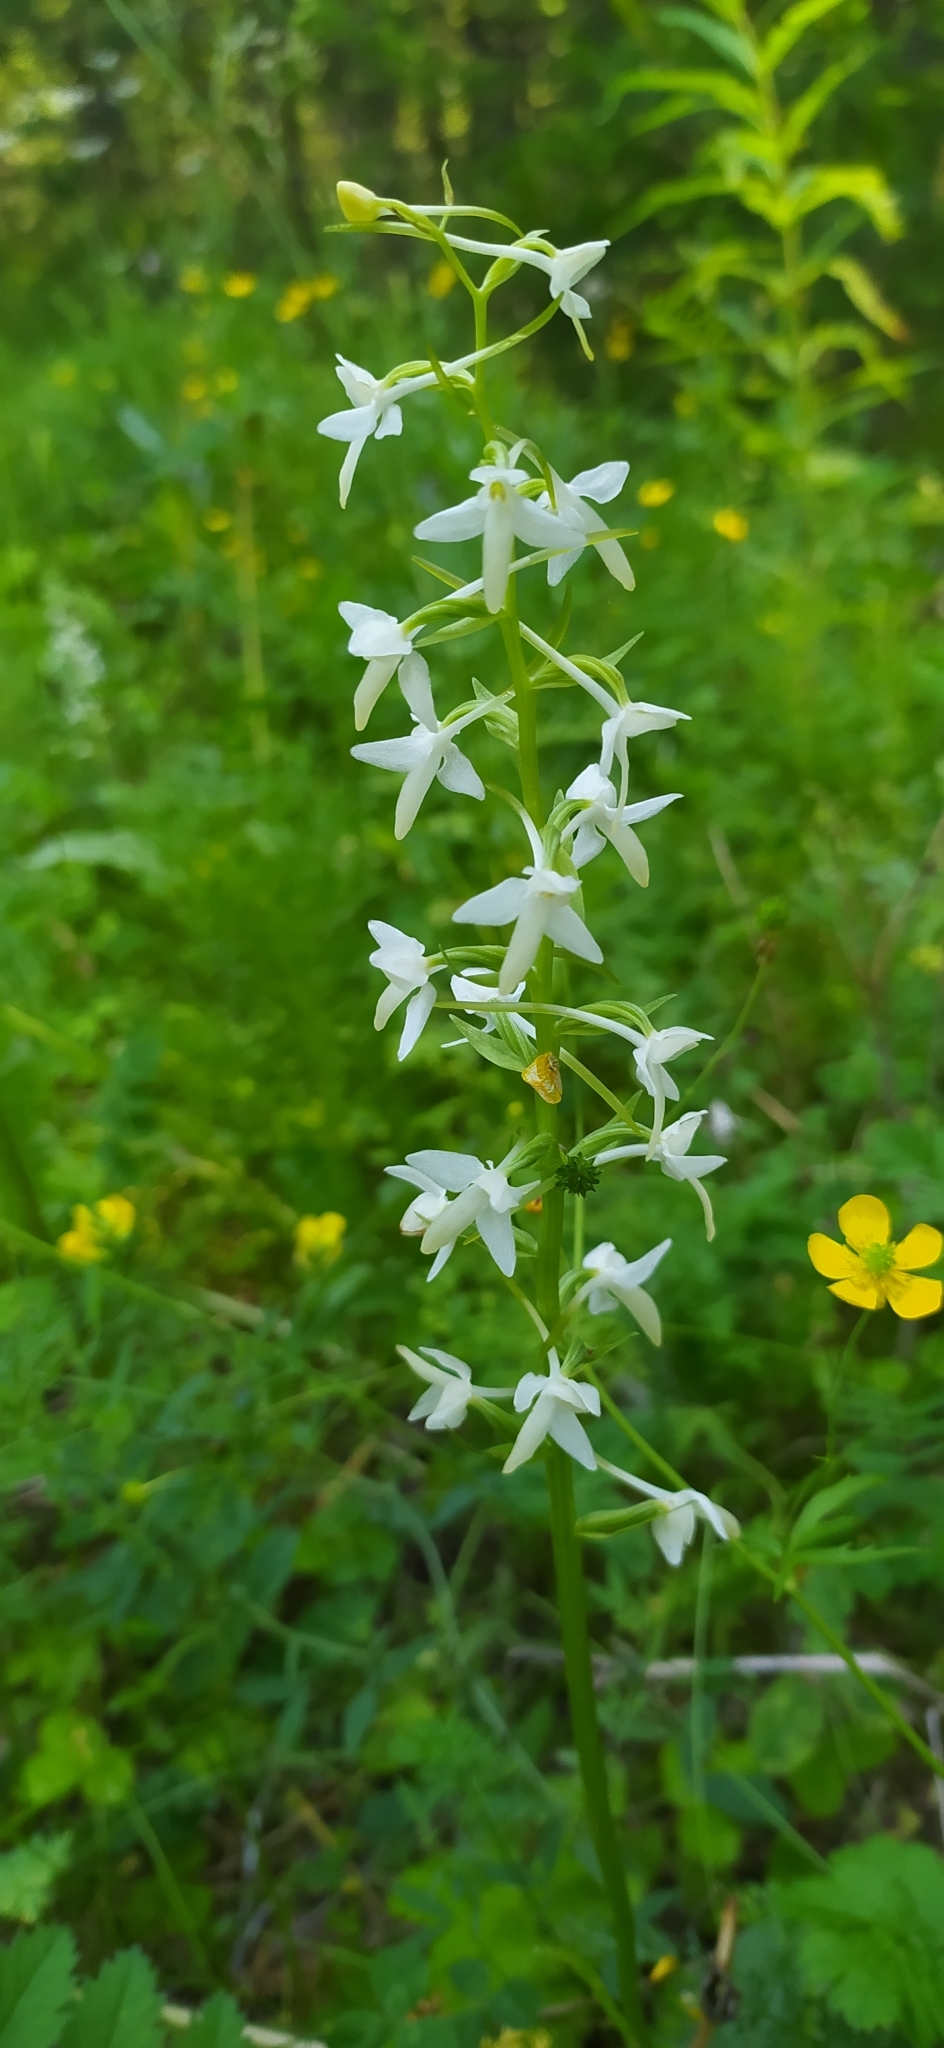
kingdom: Plantae
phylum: Tracheophyta
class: Liliopsida
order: Asparagales
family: Orchidaceae
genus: Platanthera
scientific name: Platanthera bifolia
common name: Lesser butterfly-orchid
